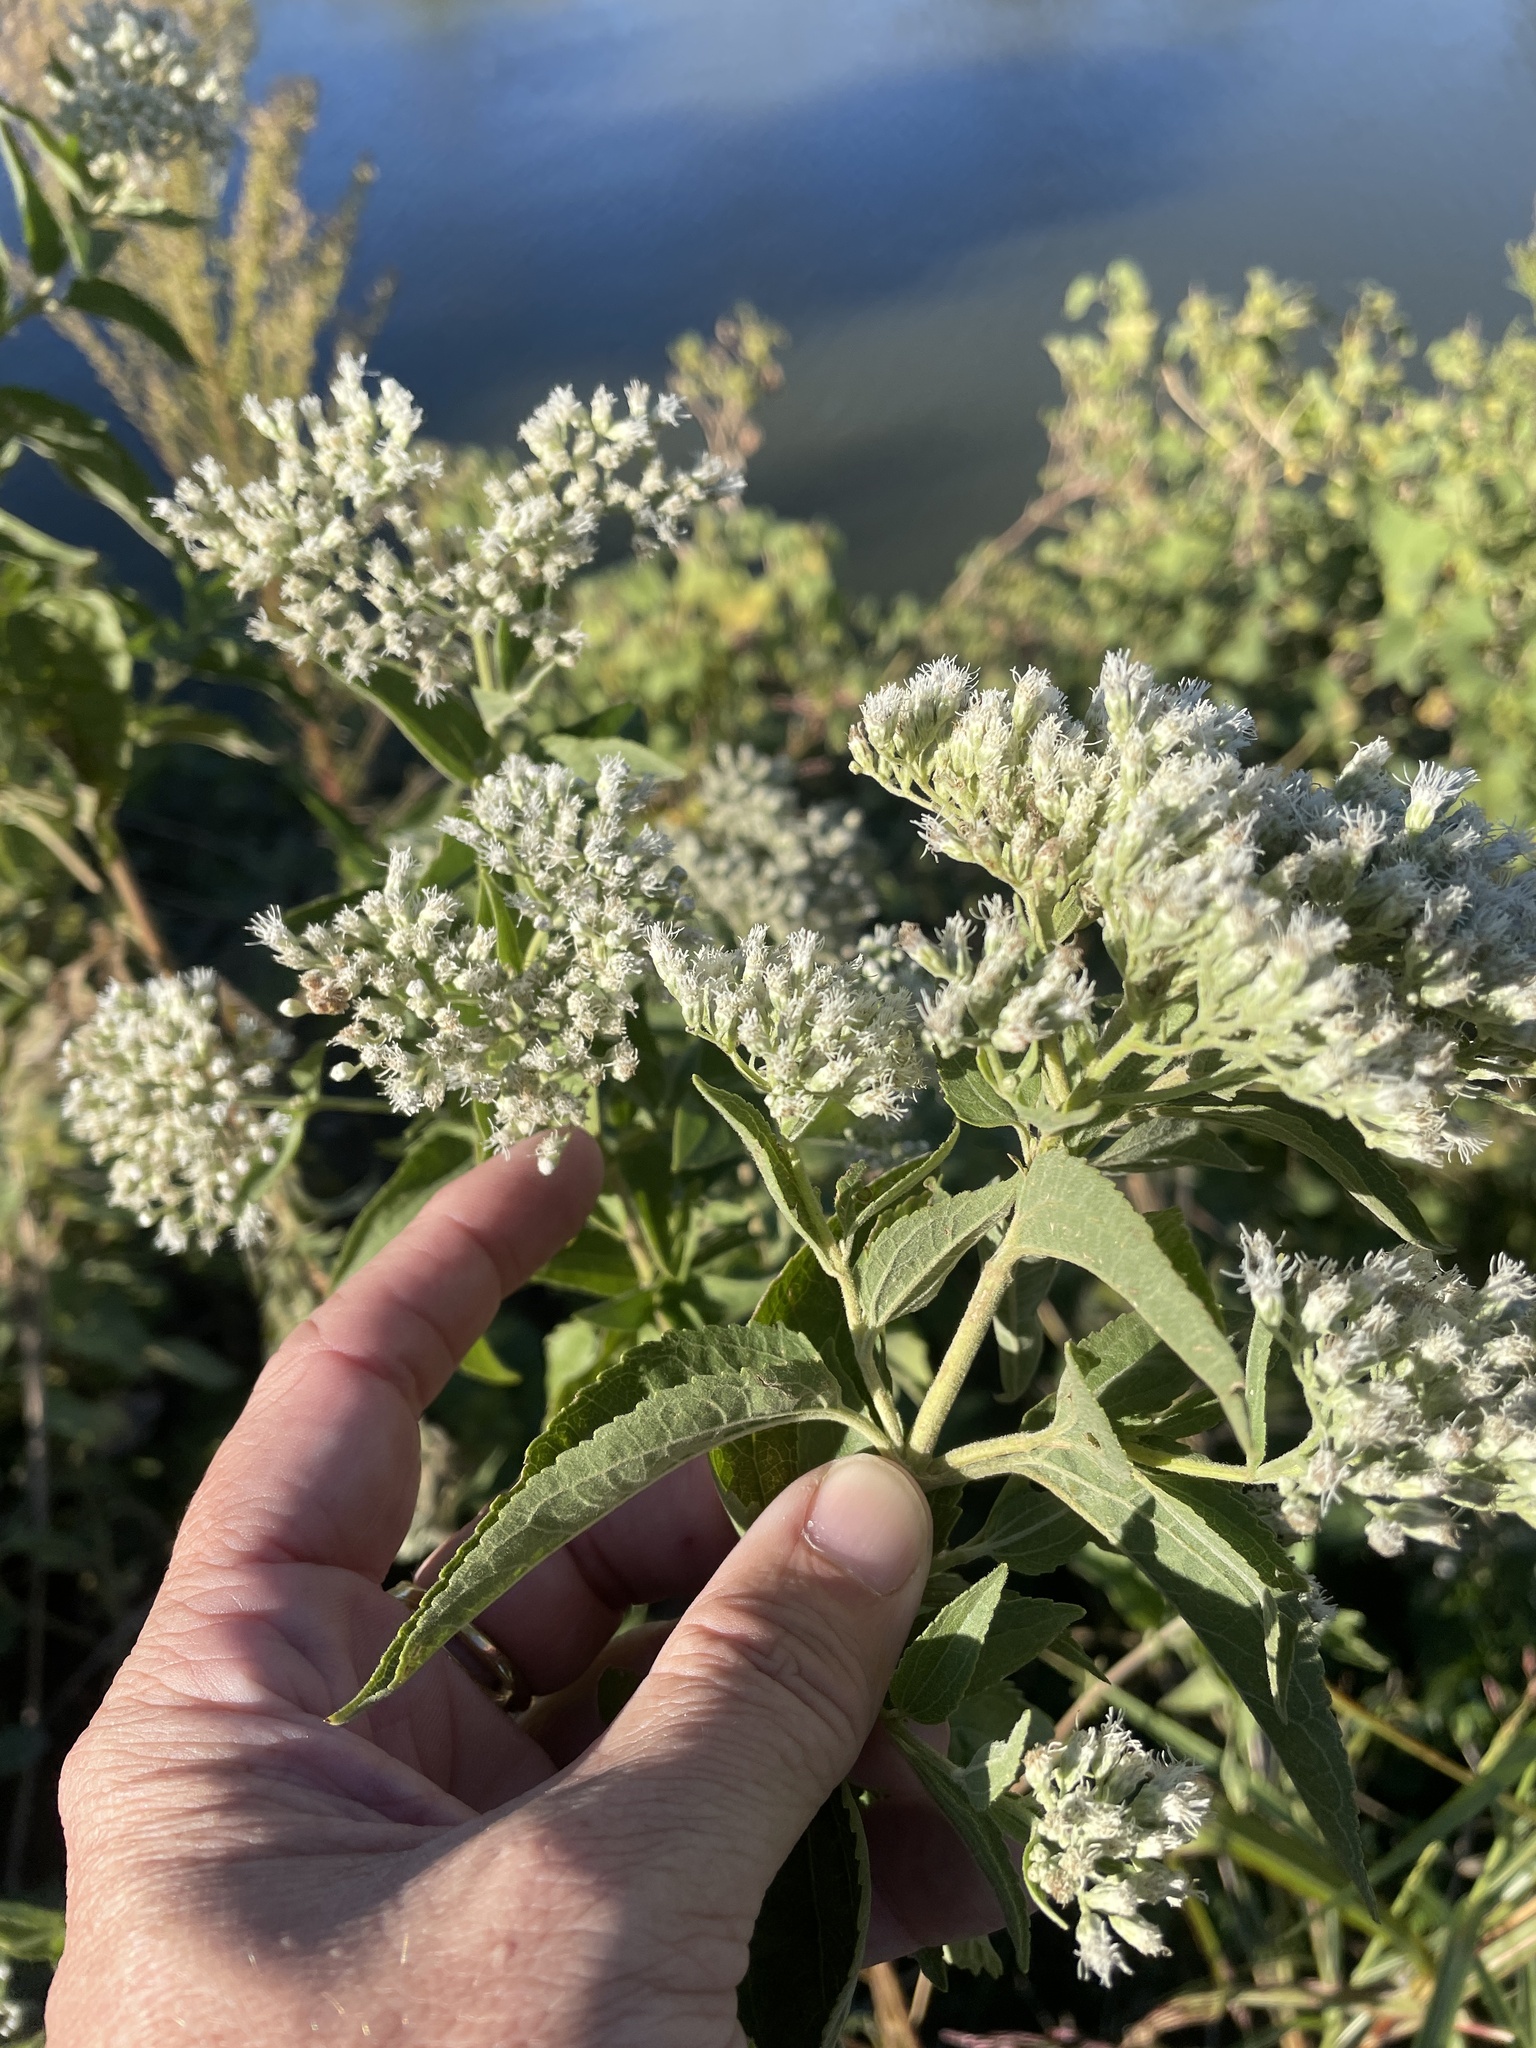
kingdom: Plantae
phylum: Tracheophyta
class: Magnoliopsida
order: Asterales
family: Asteraceae
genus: Eupatorium
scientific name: Eupatorium serotinum
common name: Late boneset
